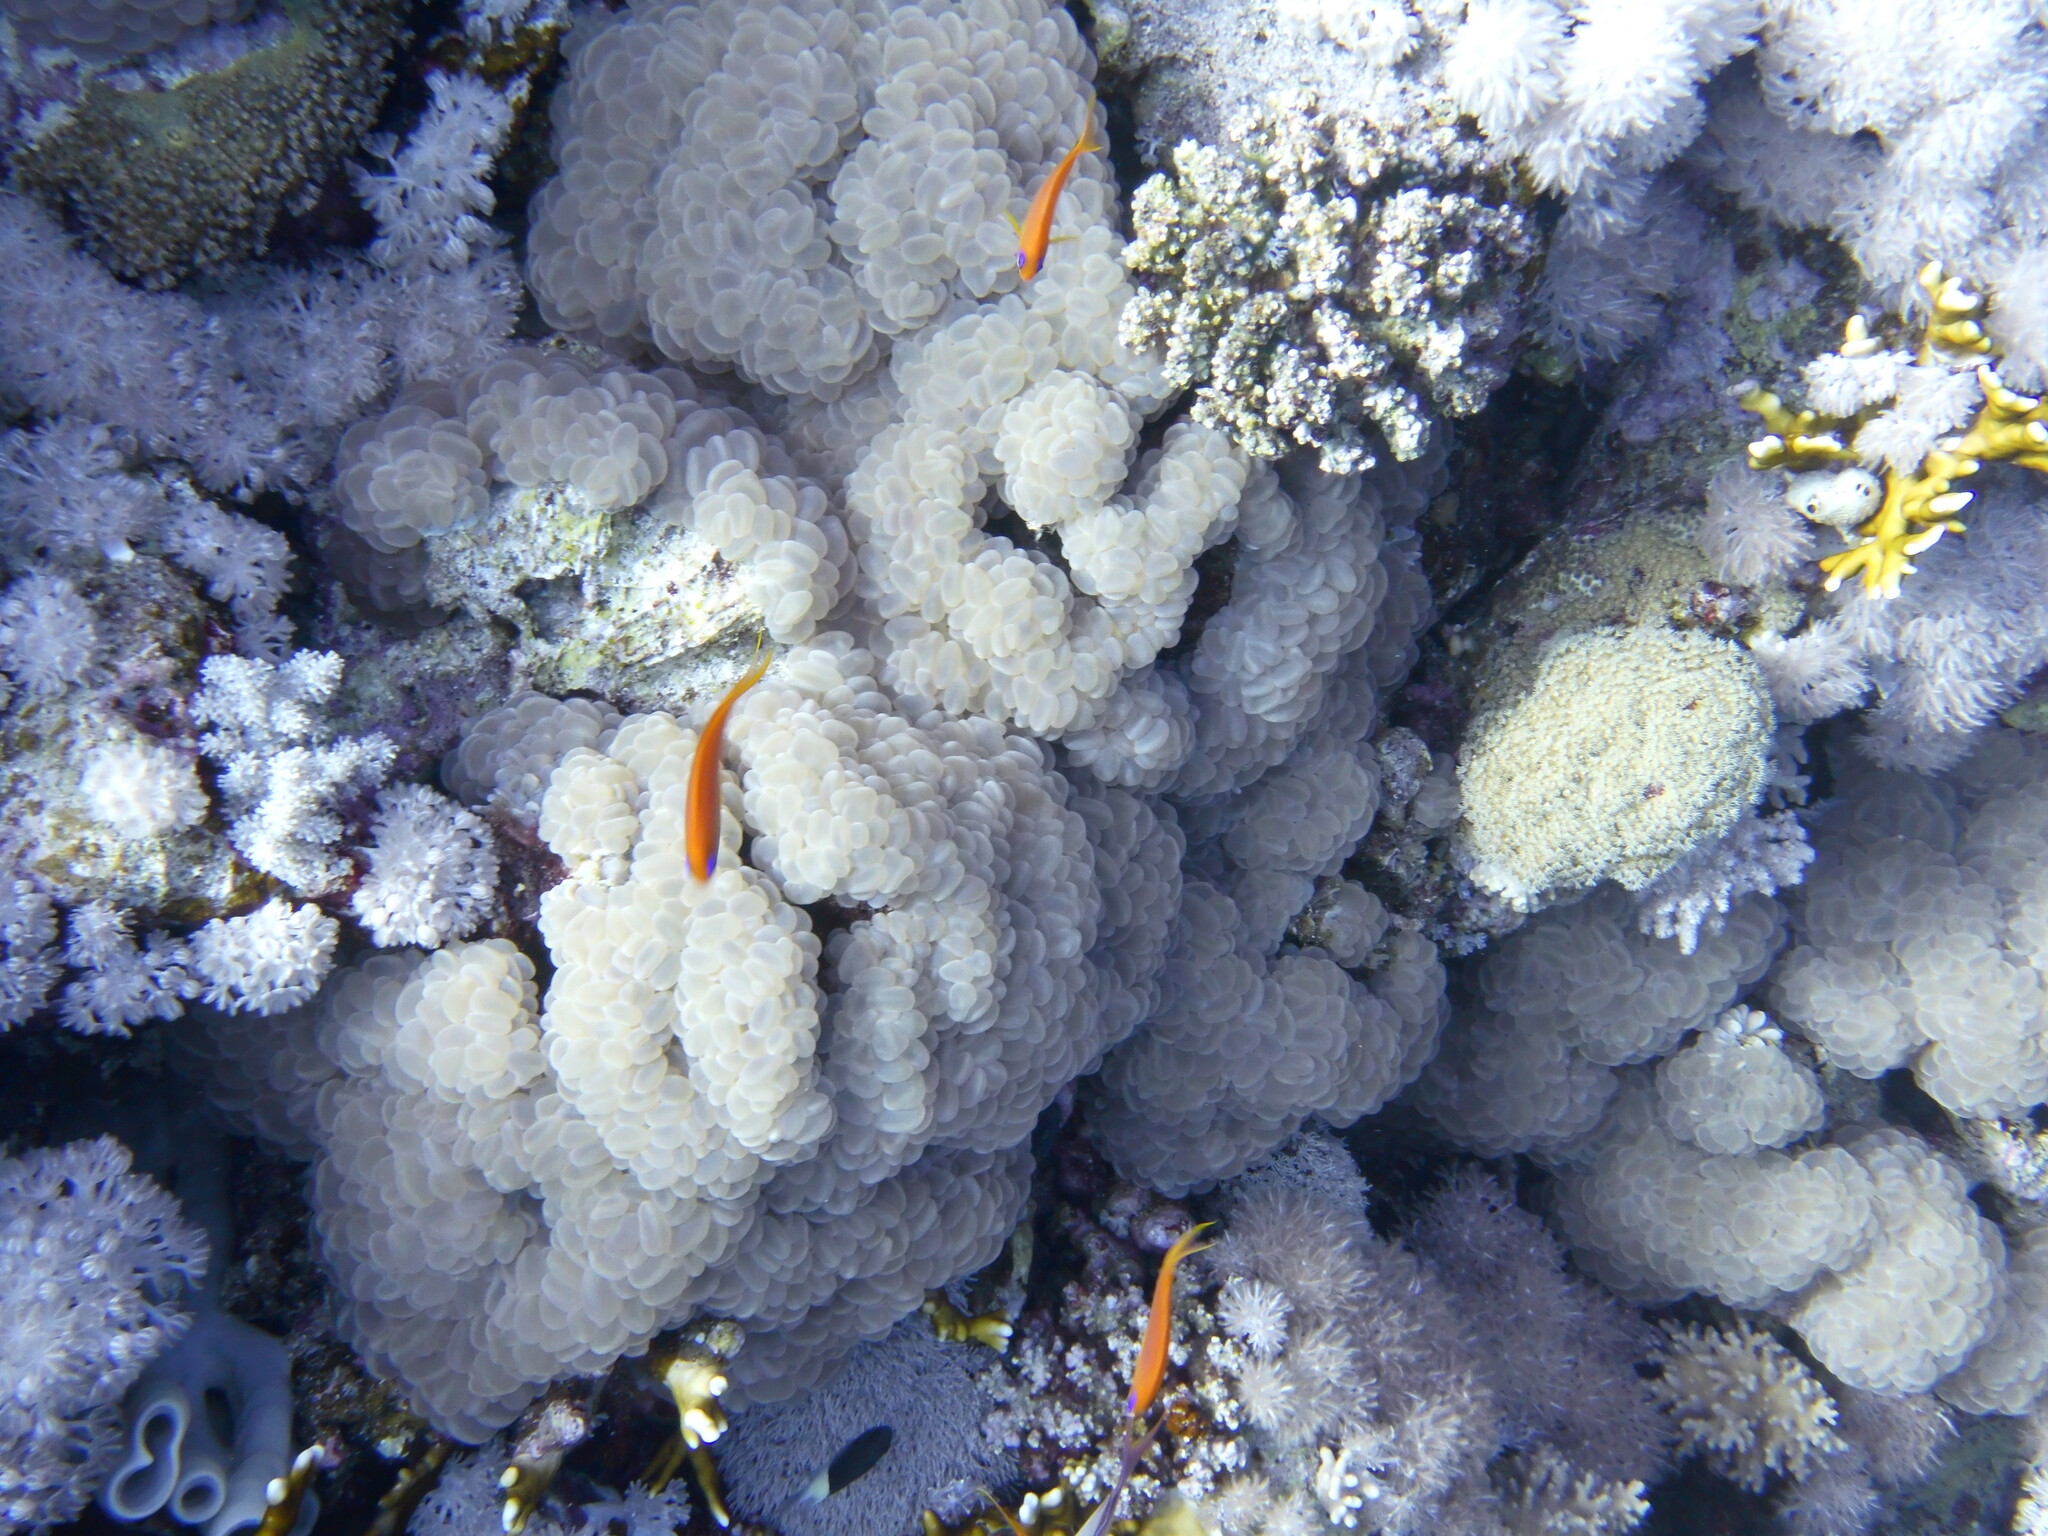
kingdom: Animalia
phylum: Cnidaria
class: Anthozoa
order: Scleractinia
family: Plerogyridae
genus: Plerogyra
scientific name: Plerogyra sinuosa
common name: Bubble coral
